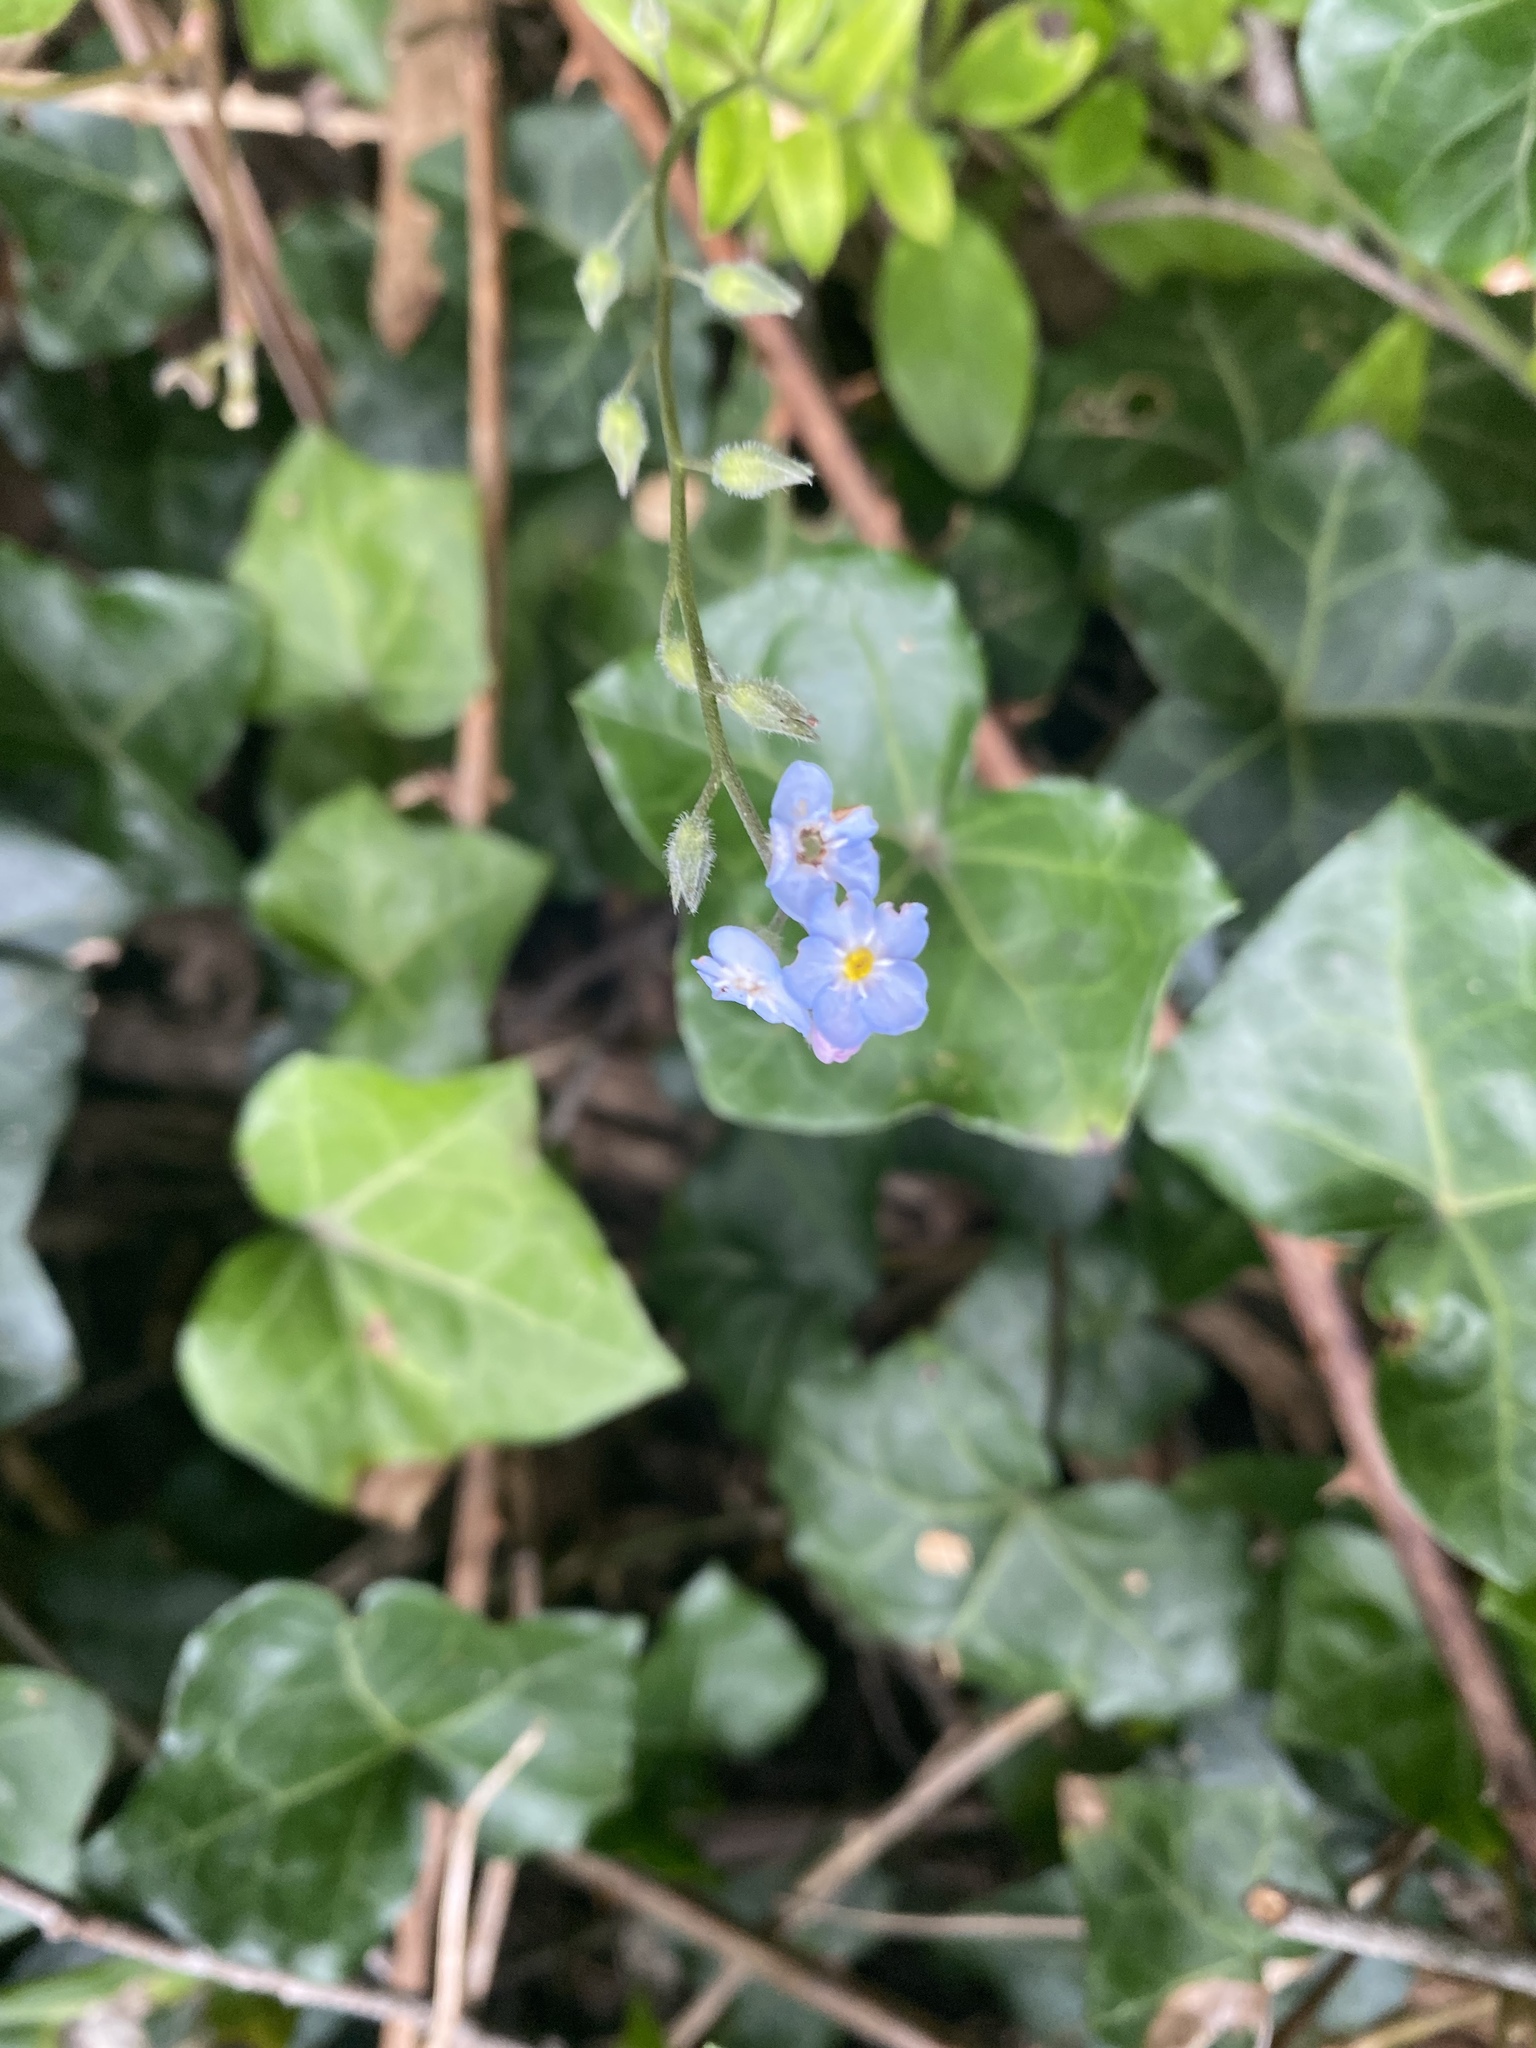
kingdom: Plantae
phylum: Tracheophyta
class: Magnoliopsida
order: Boraginales
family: Boraginaceae
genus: Myosotis
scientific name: Myosotis latifolia
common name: Broadleaf forget-me-not
